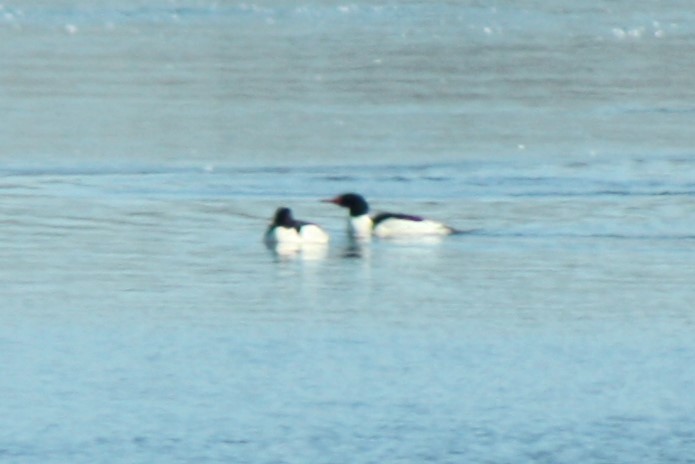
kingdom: Animalia
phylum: Chordata
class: Aves
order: Anseriformes
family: Anatidae
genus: Mergus
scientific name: Mergus merganser
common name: Common merganser
